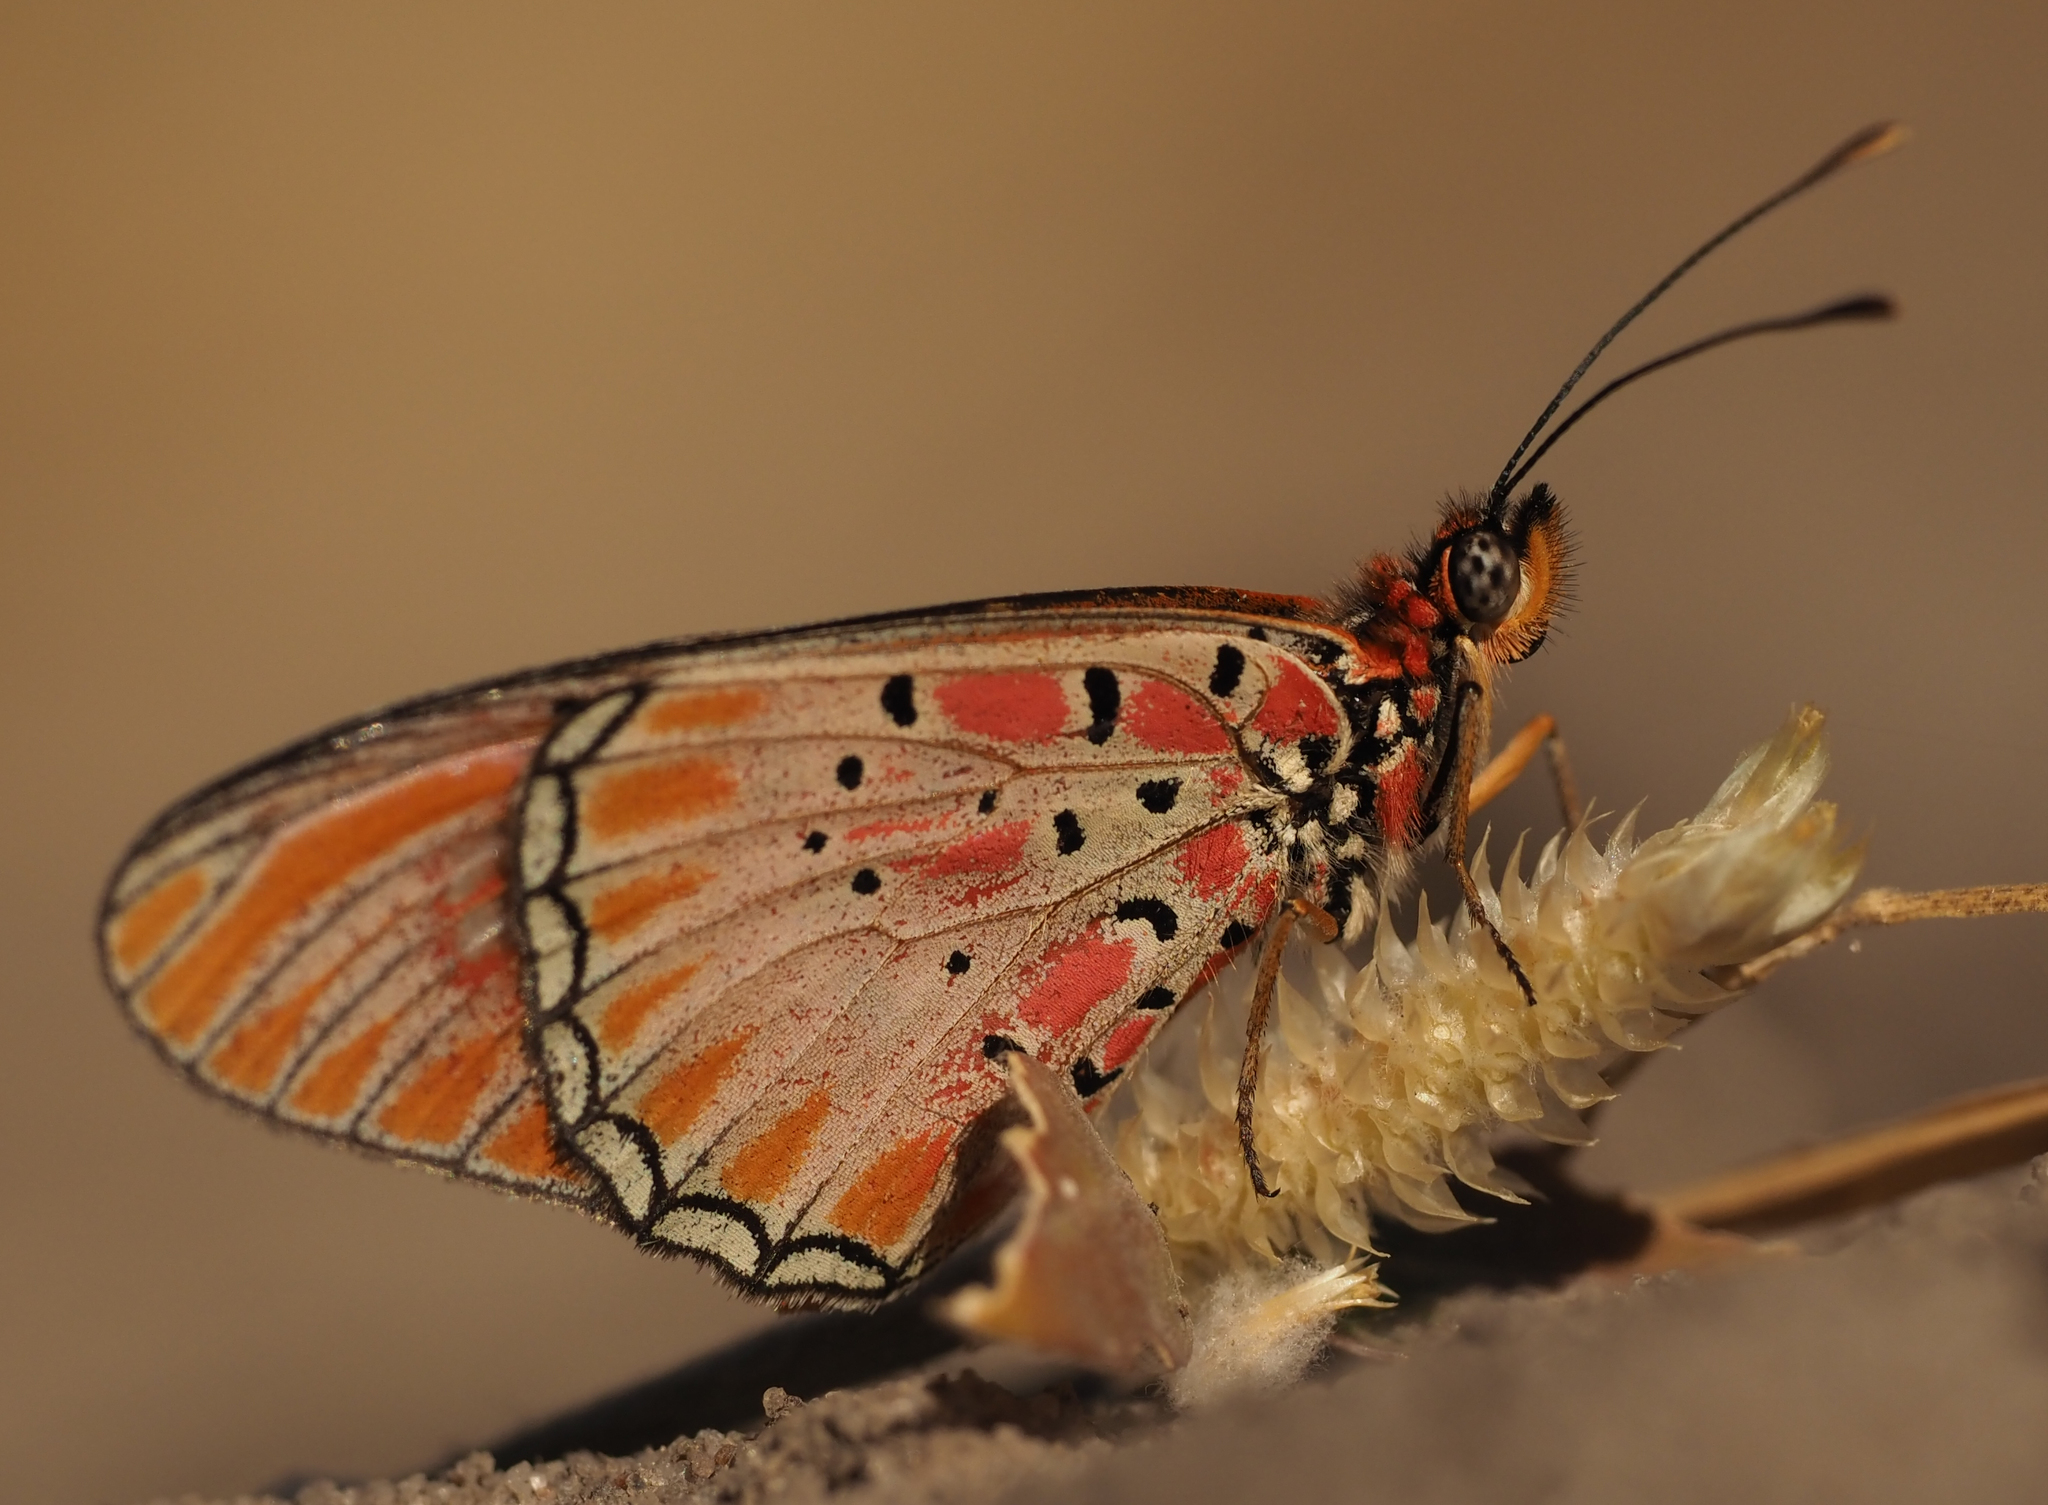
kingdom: Animalia
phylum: Arthropoda
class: Insecta
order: Lepidoptera
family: Nymphalidae
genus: Stephenia
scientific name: Stephenia
